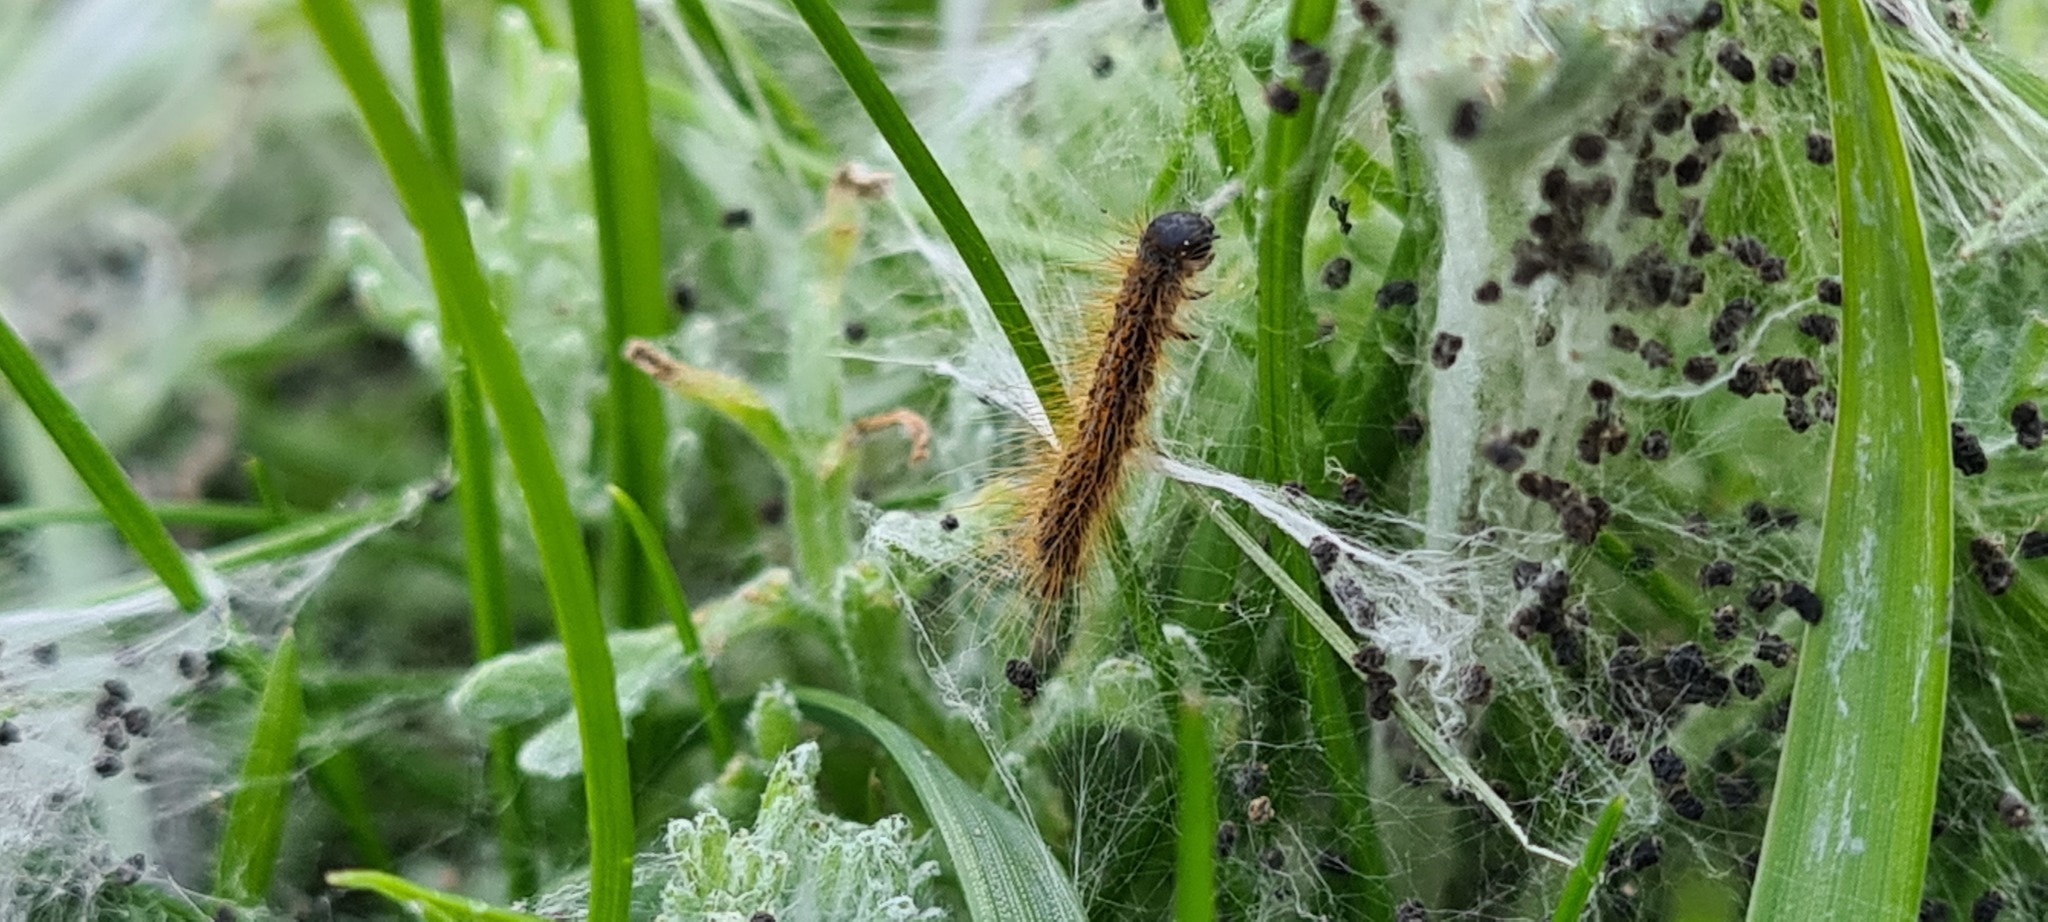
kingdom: Animalia
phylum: Arthropoda
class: Insecta
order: Lepidoptera
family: Lasiocampidae
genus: Malacosoma
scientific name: Malacosoma castrense
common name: Ground lackey
